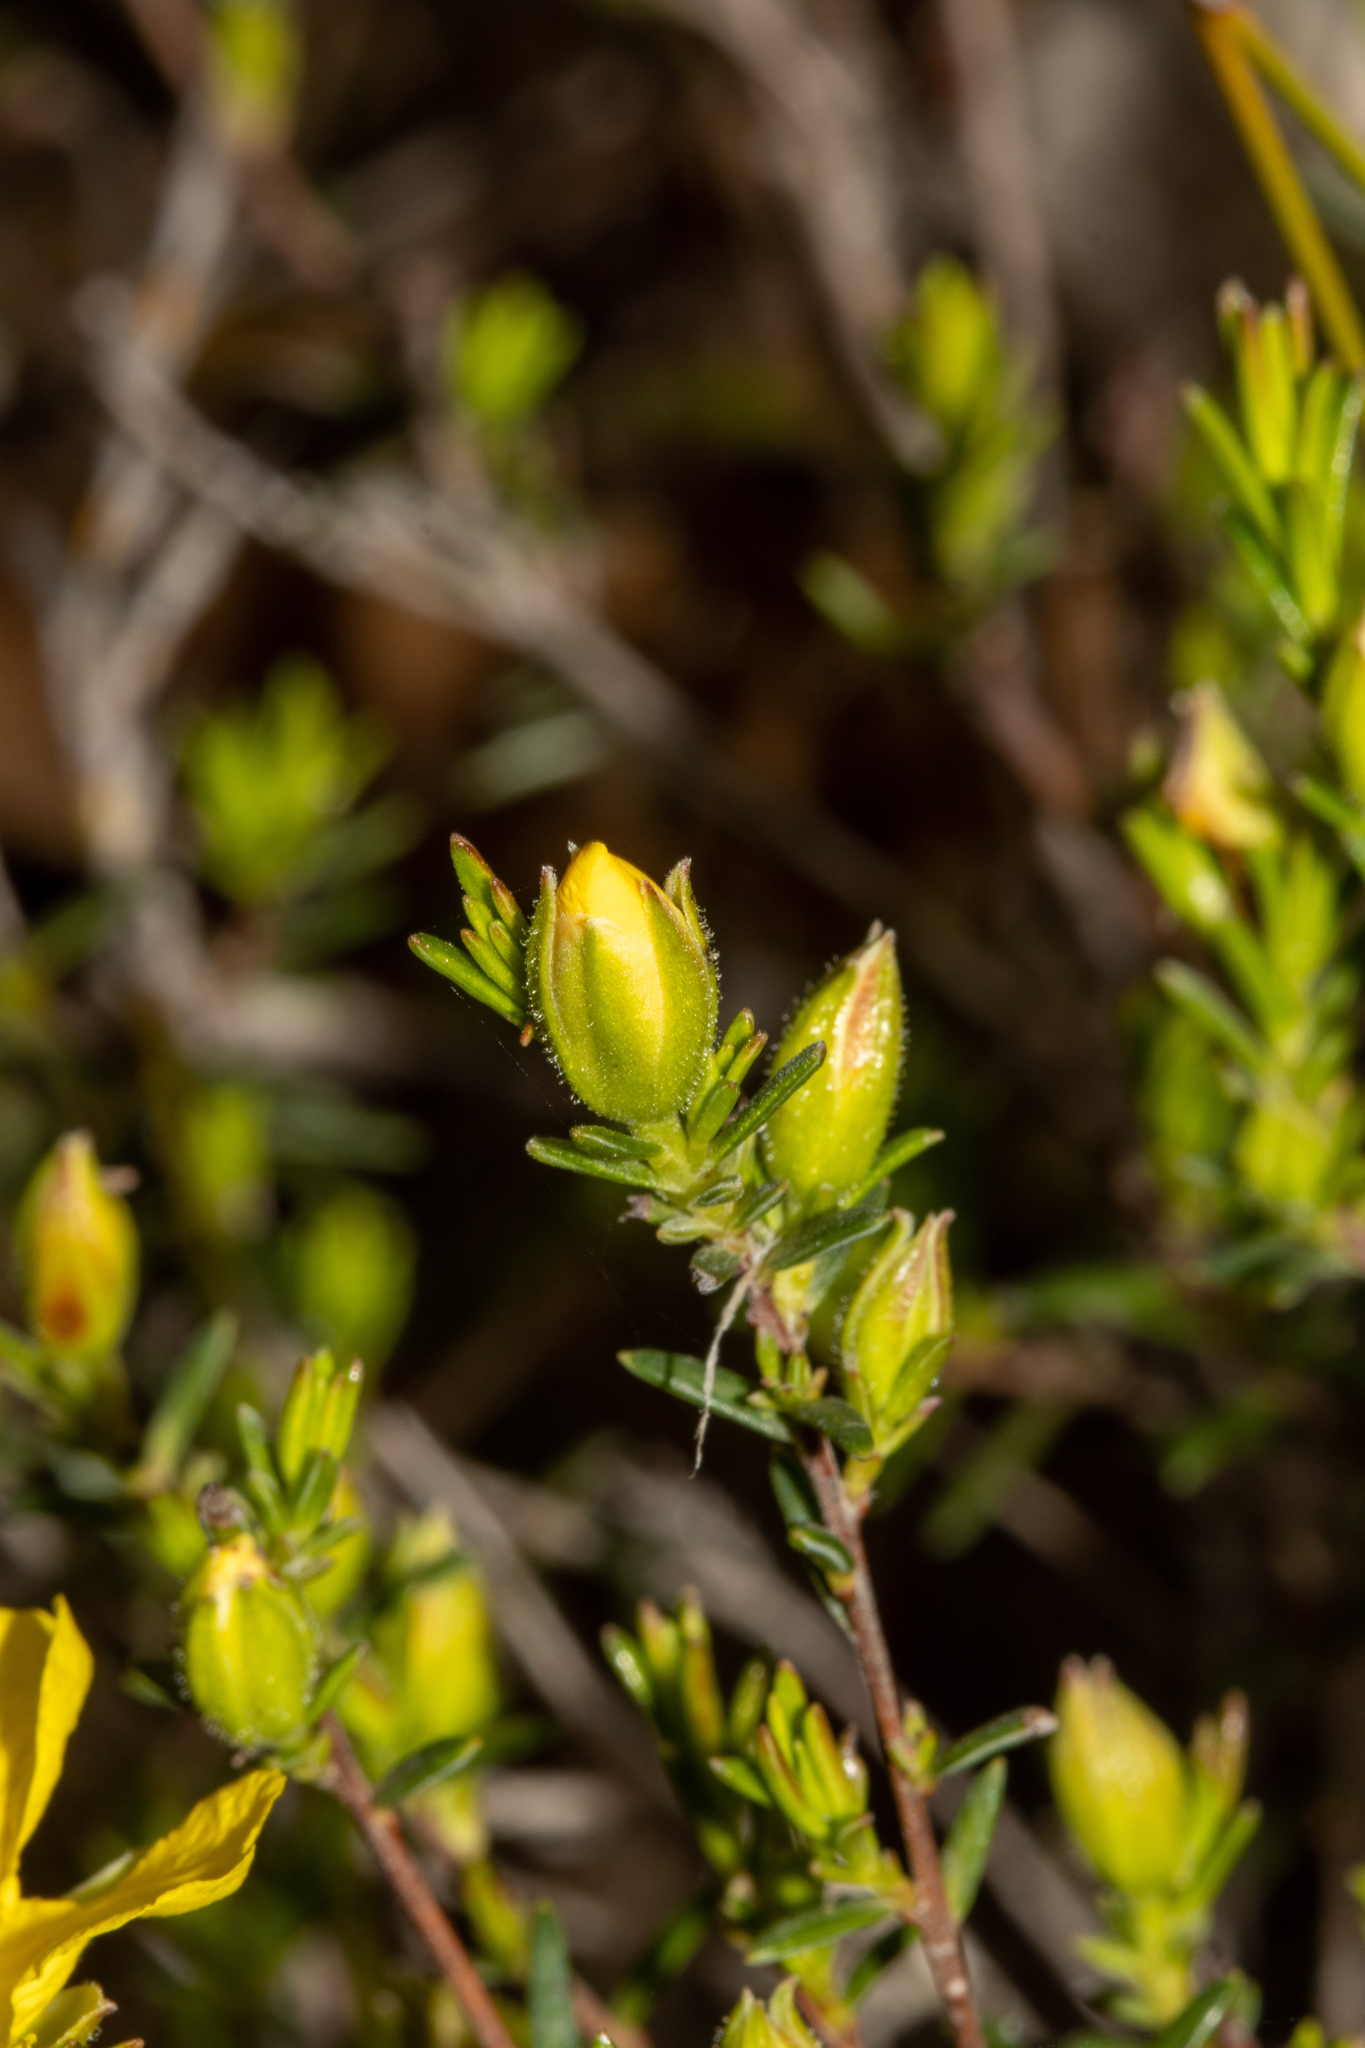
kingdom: Plantae
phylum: Tracheophyta
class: Magnoliopsida
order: Dilleniales
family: Dilleniaceae
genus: Hibbertia
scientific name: Hibbertia devitata
